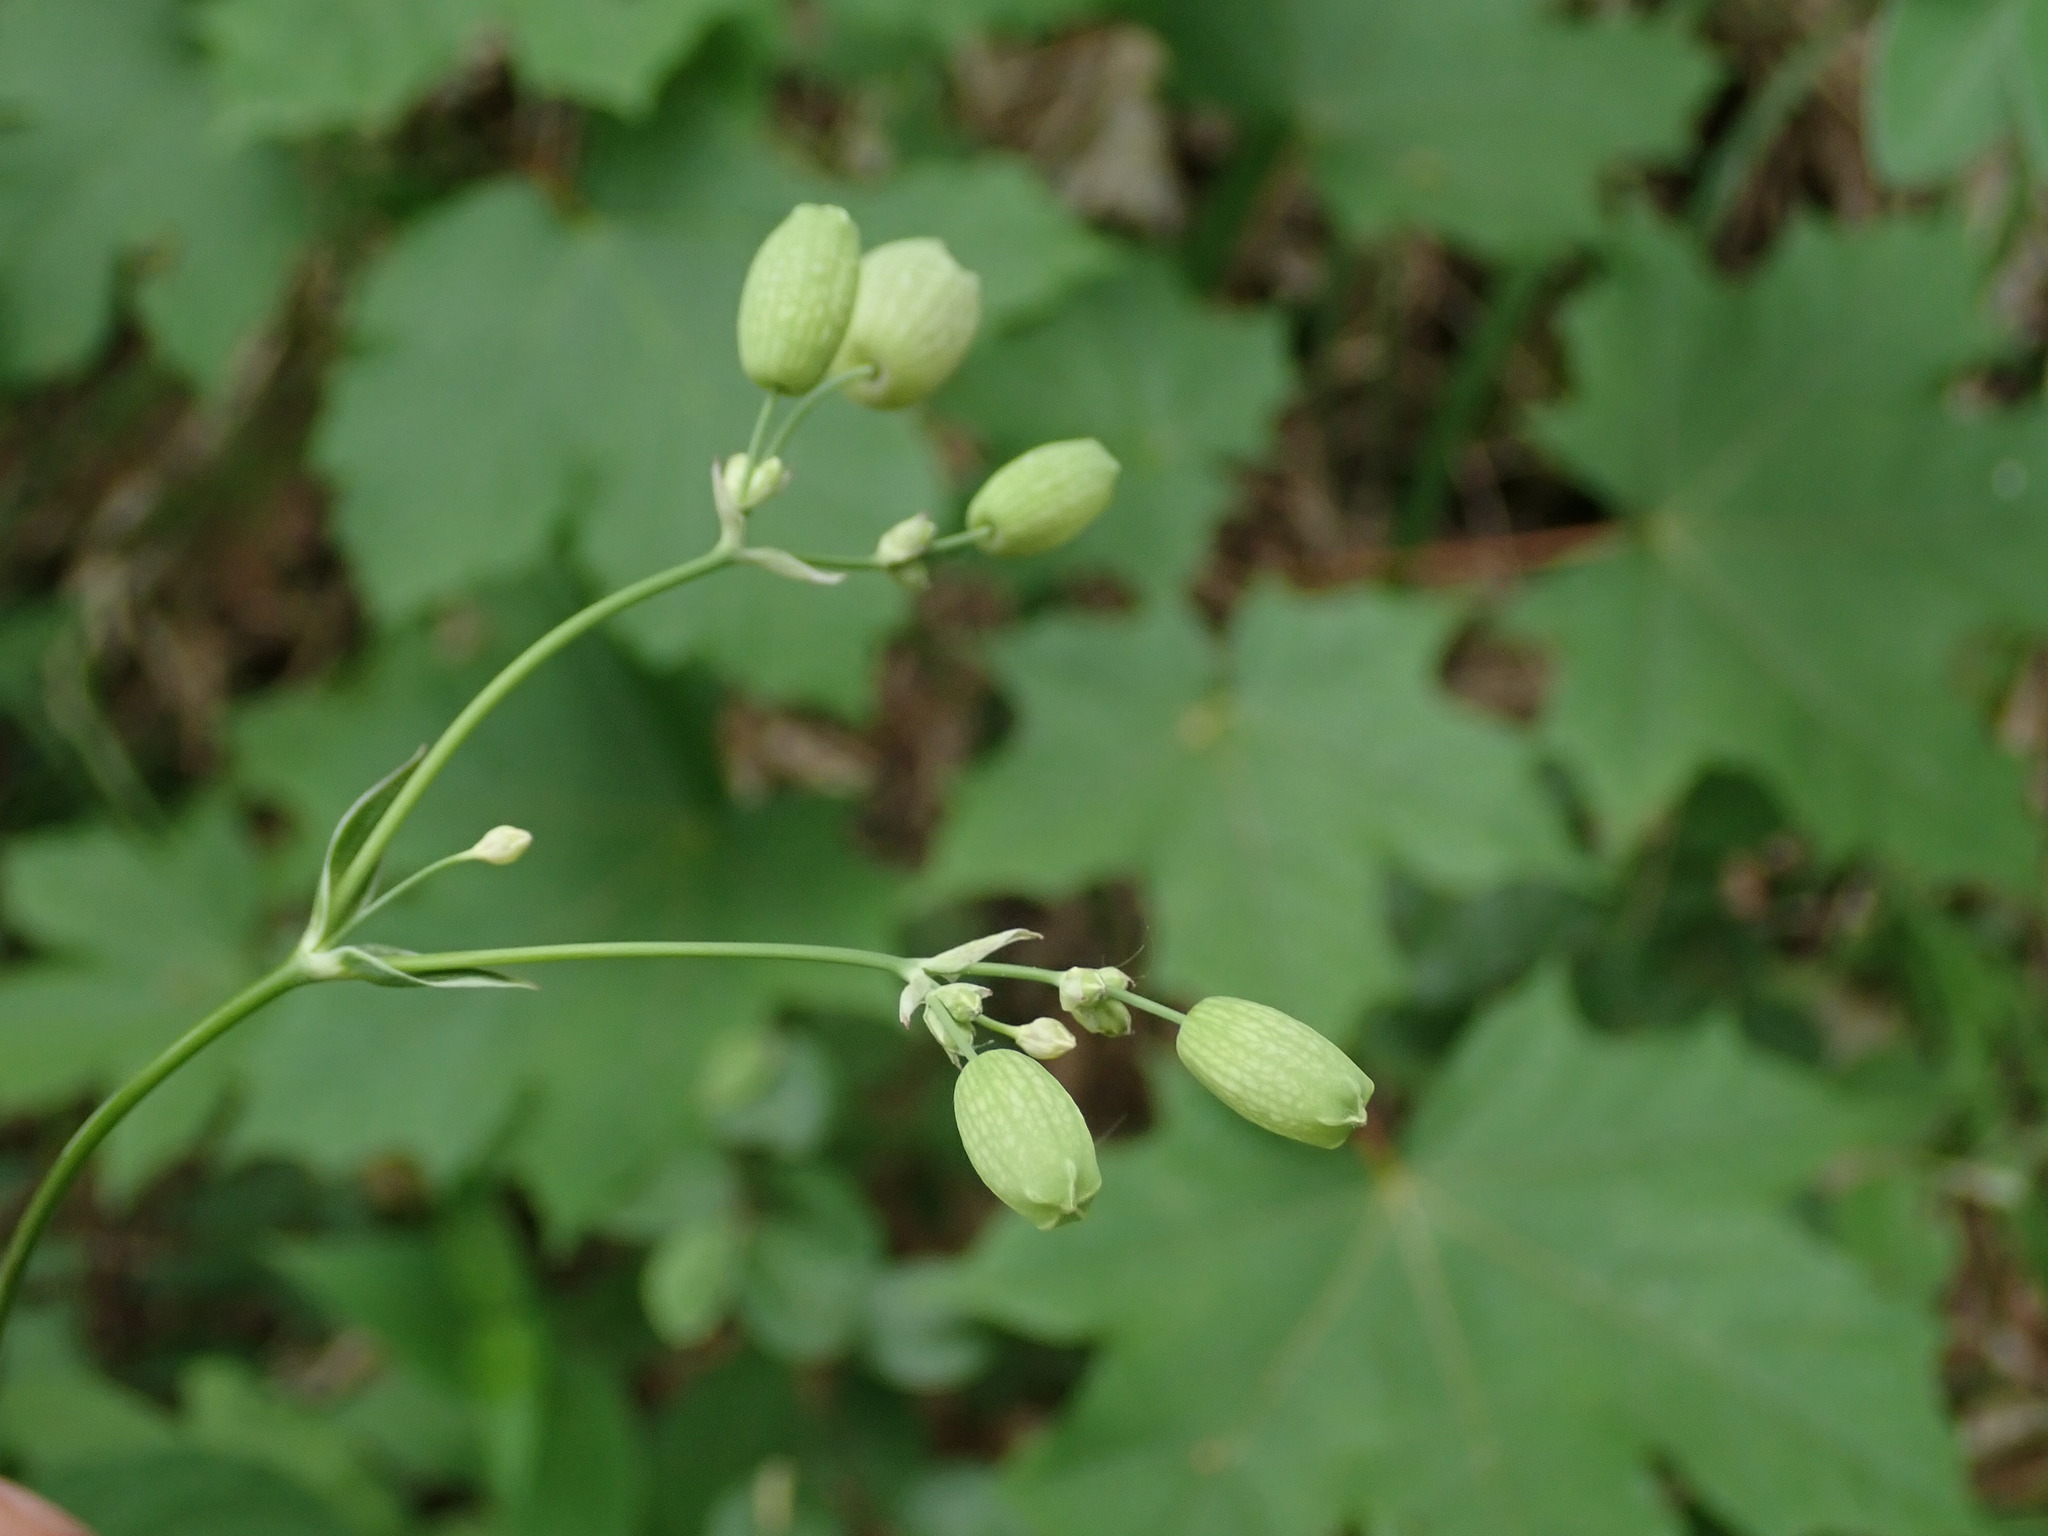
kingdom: Plantae
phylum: Tracheophyta
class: Magnoliopsida
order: Caryophyllales
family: Caryophyllaceae
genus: Silene
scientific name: Silene vulgaris
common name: Bladder campion
